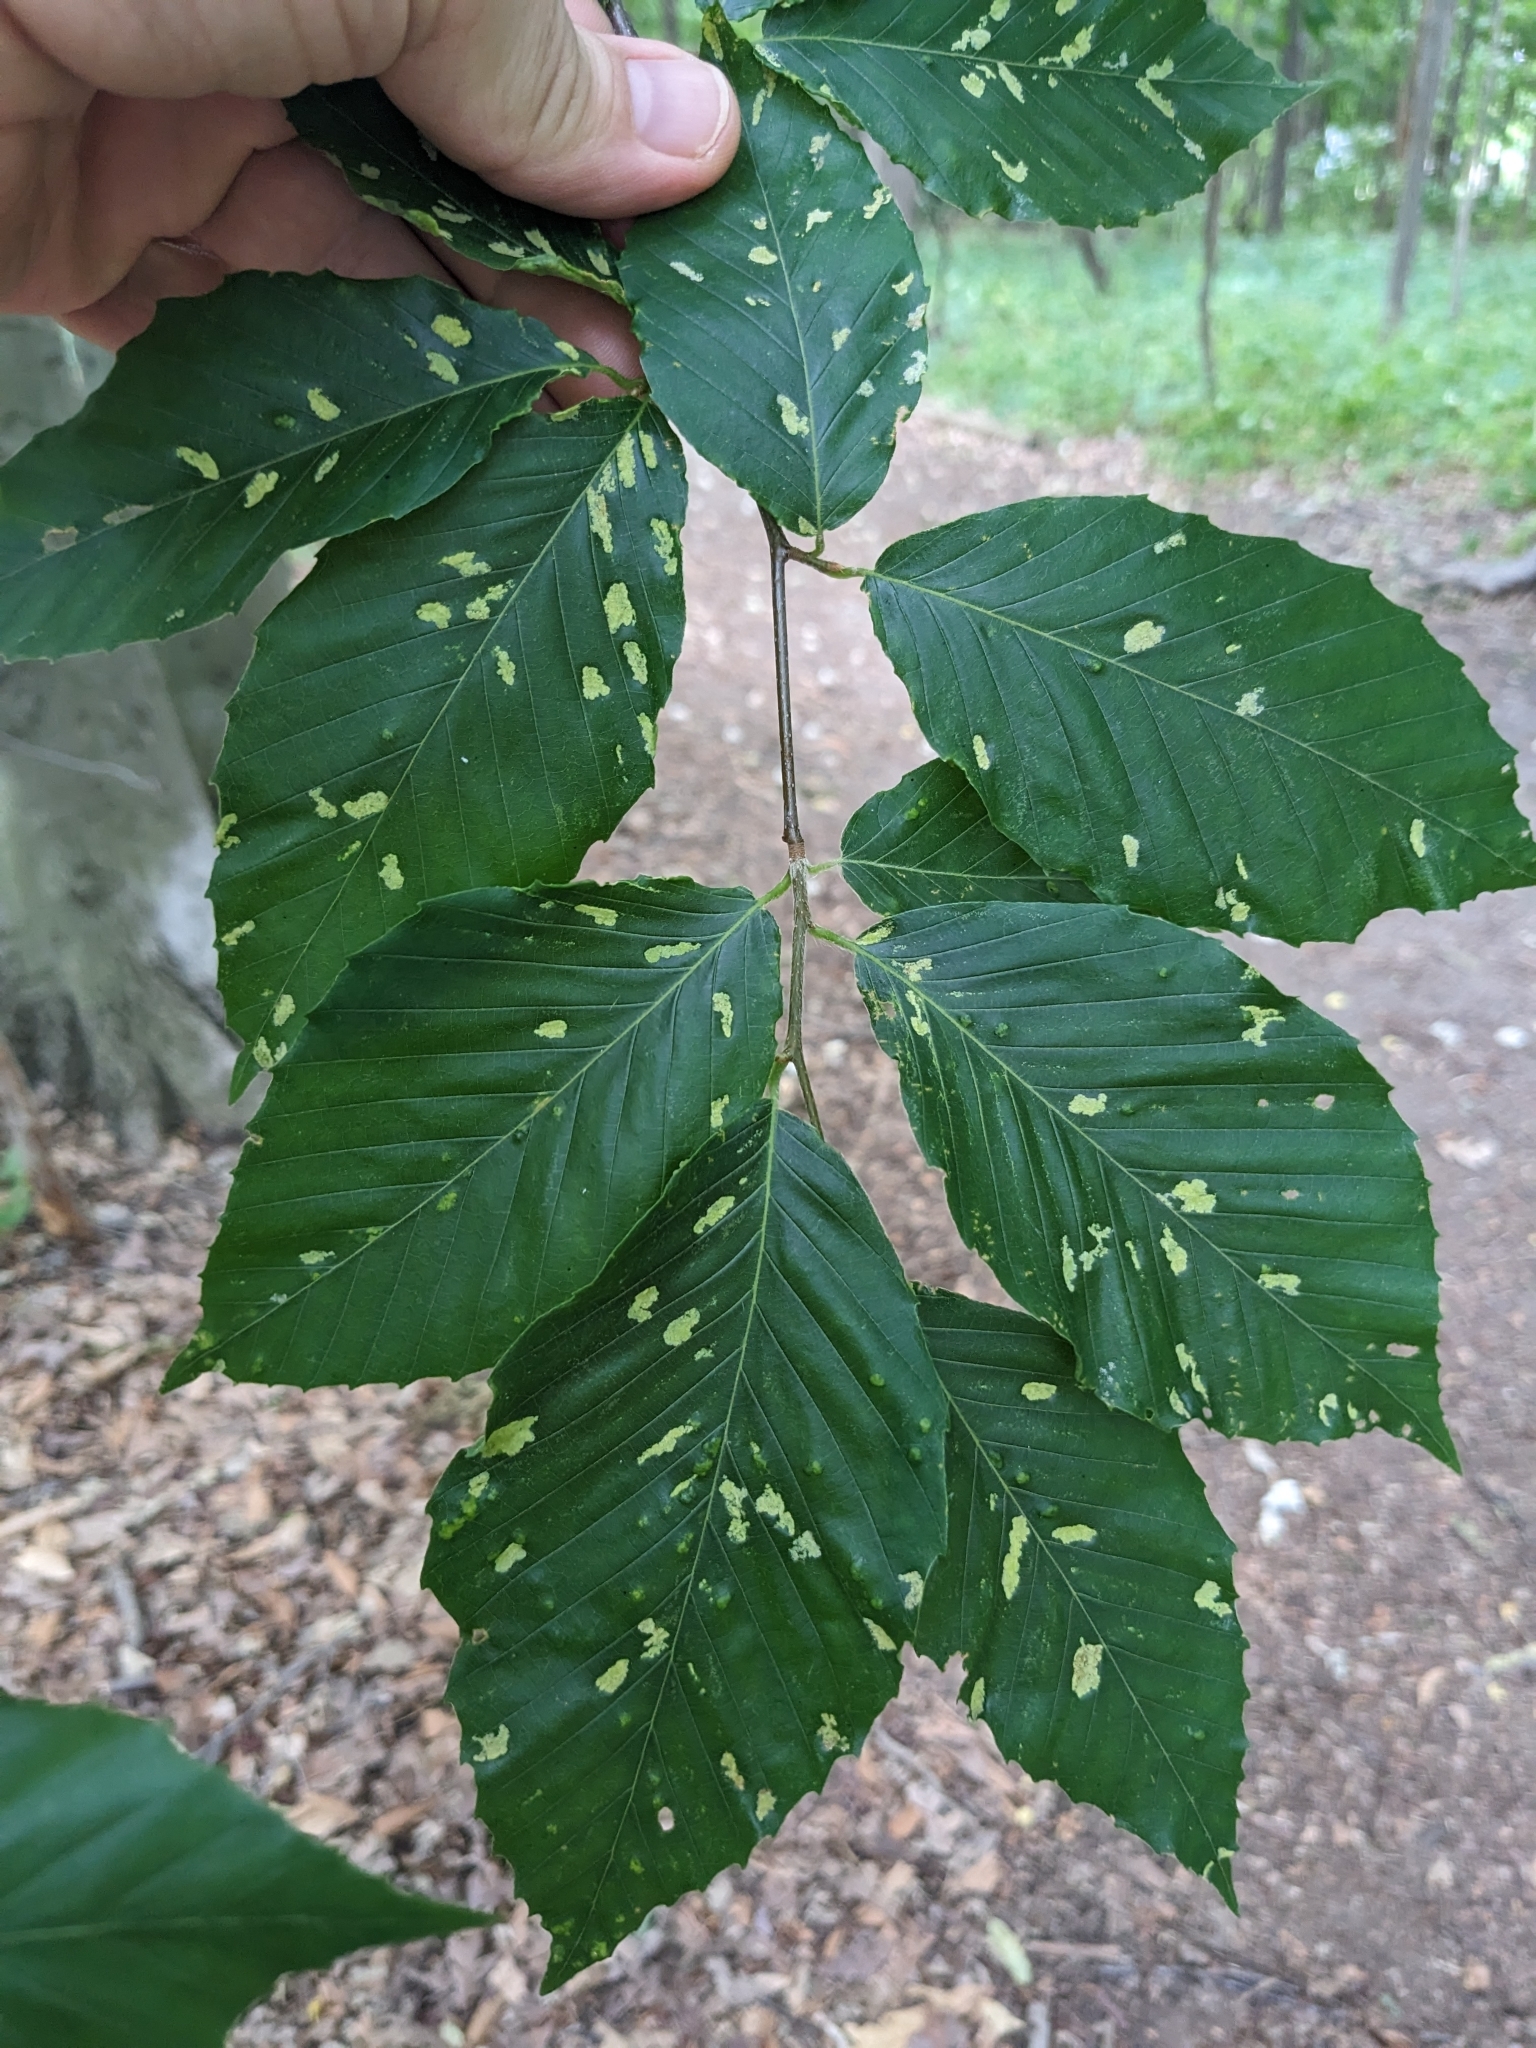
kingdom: Animalia
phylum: Arthropoda
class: Arachnida
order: Trombidiformes
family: Eriophyidae
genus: Acalitus
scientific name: Acalitus
